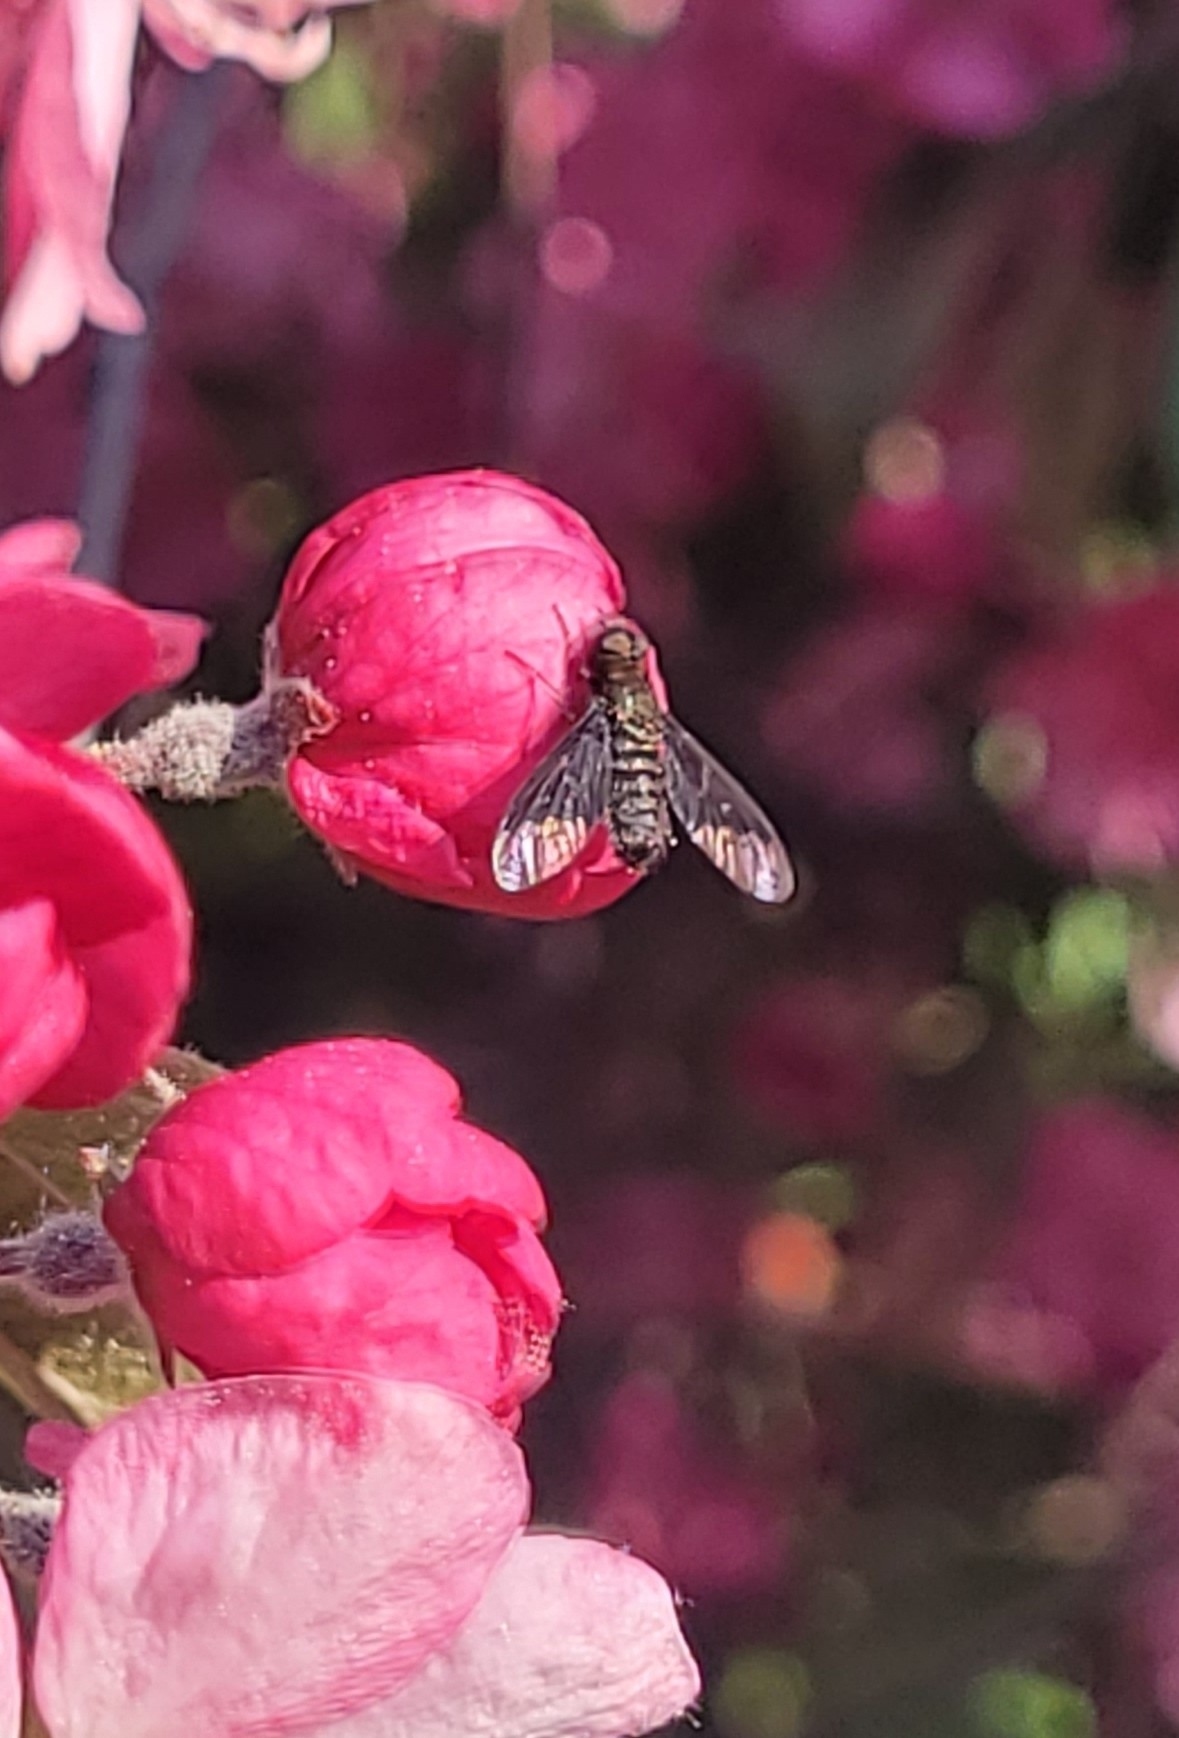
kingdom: Animalia
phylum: Arthropoda
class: Insecta
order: Diptera
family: Bombyliidae
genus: Hemipenthes
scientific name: Hemipenthes morio
